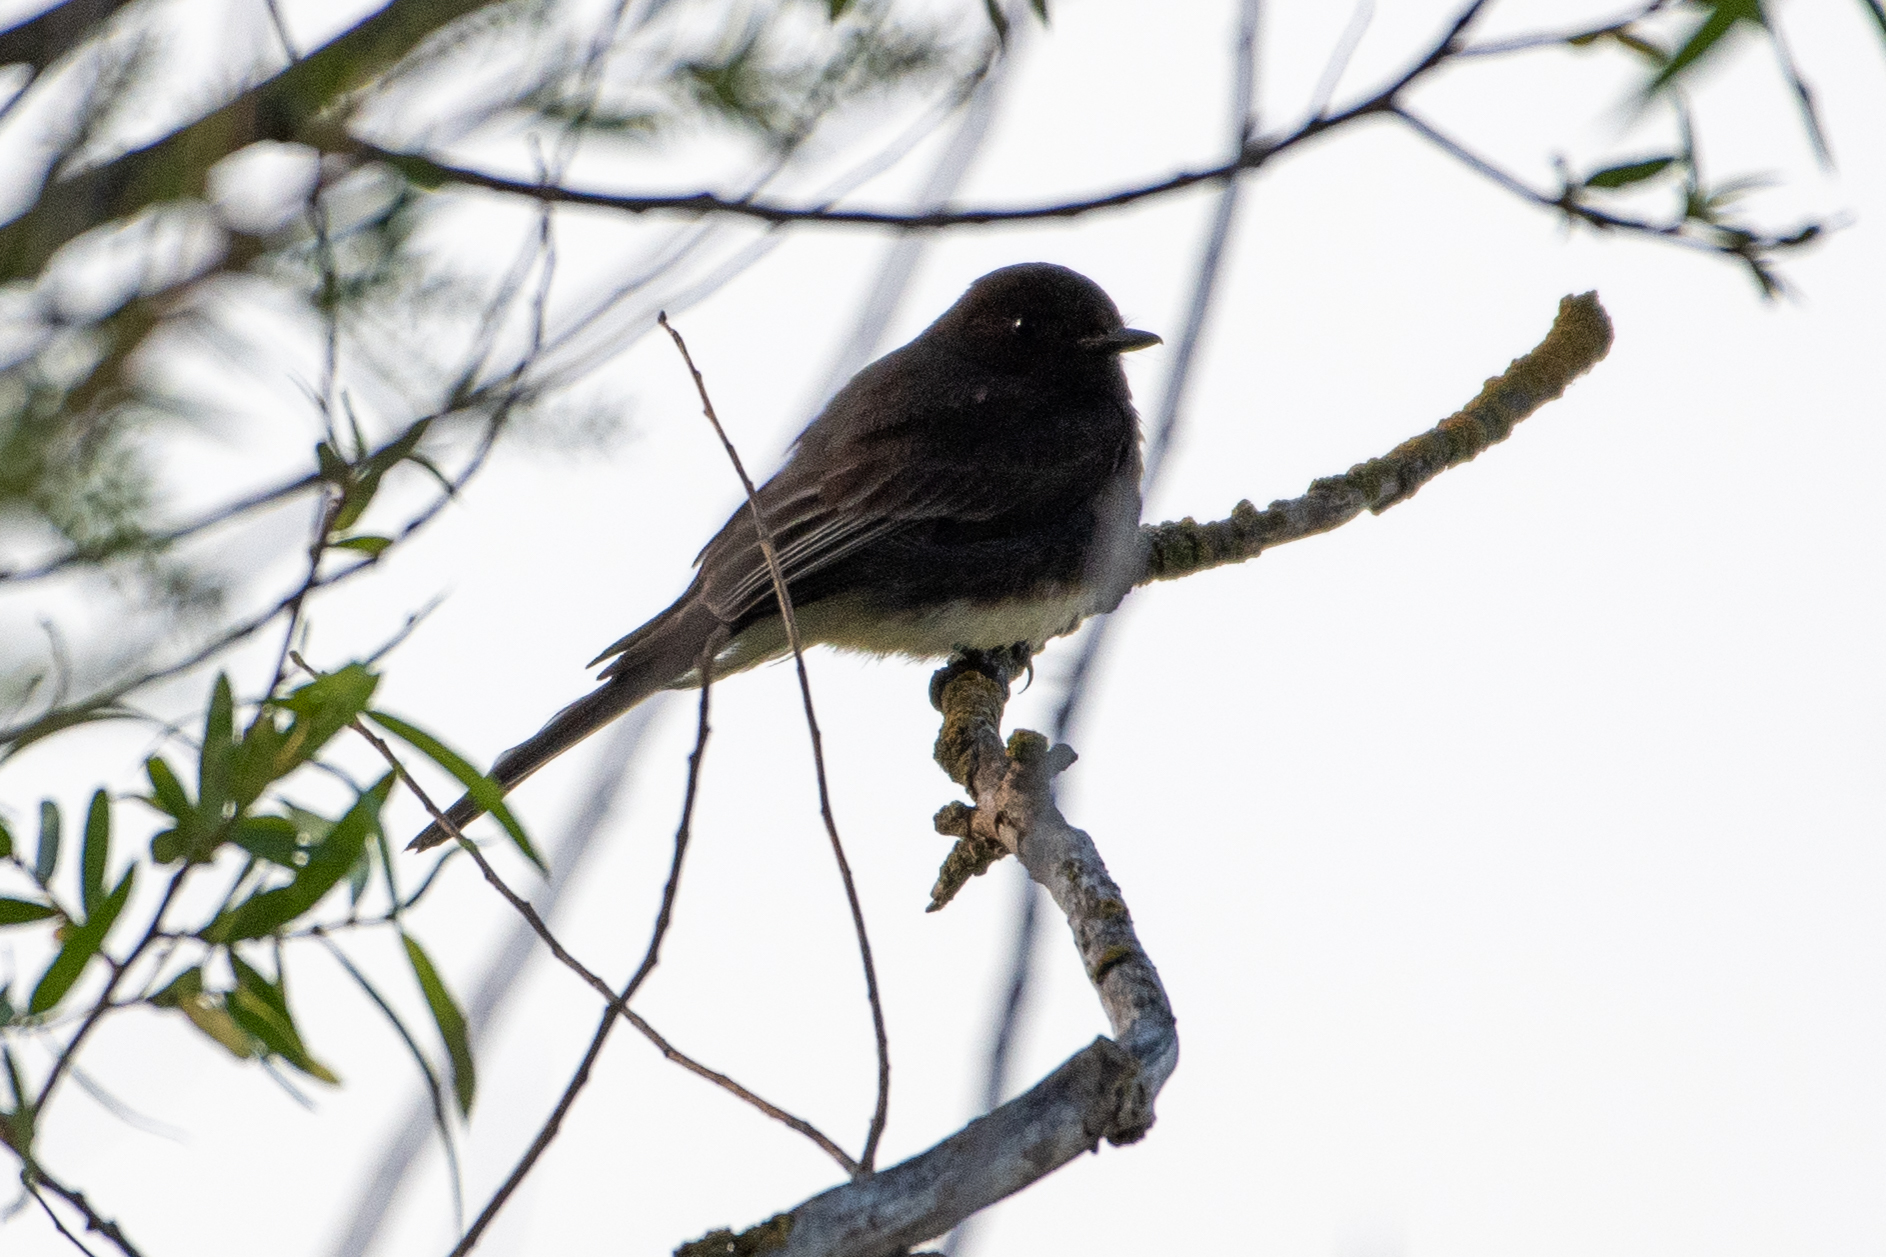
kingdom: Animalia
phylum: Chordata
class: Aves
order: Passeriformes
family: Tyrannidae
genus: Sayornis
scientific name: Sayornis nigricans
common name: Black phoebe
